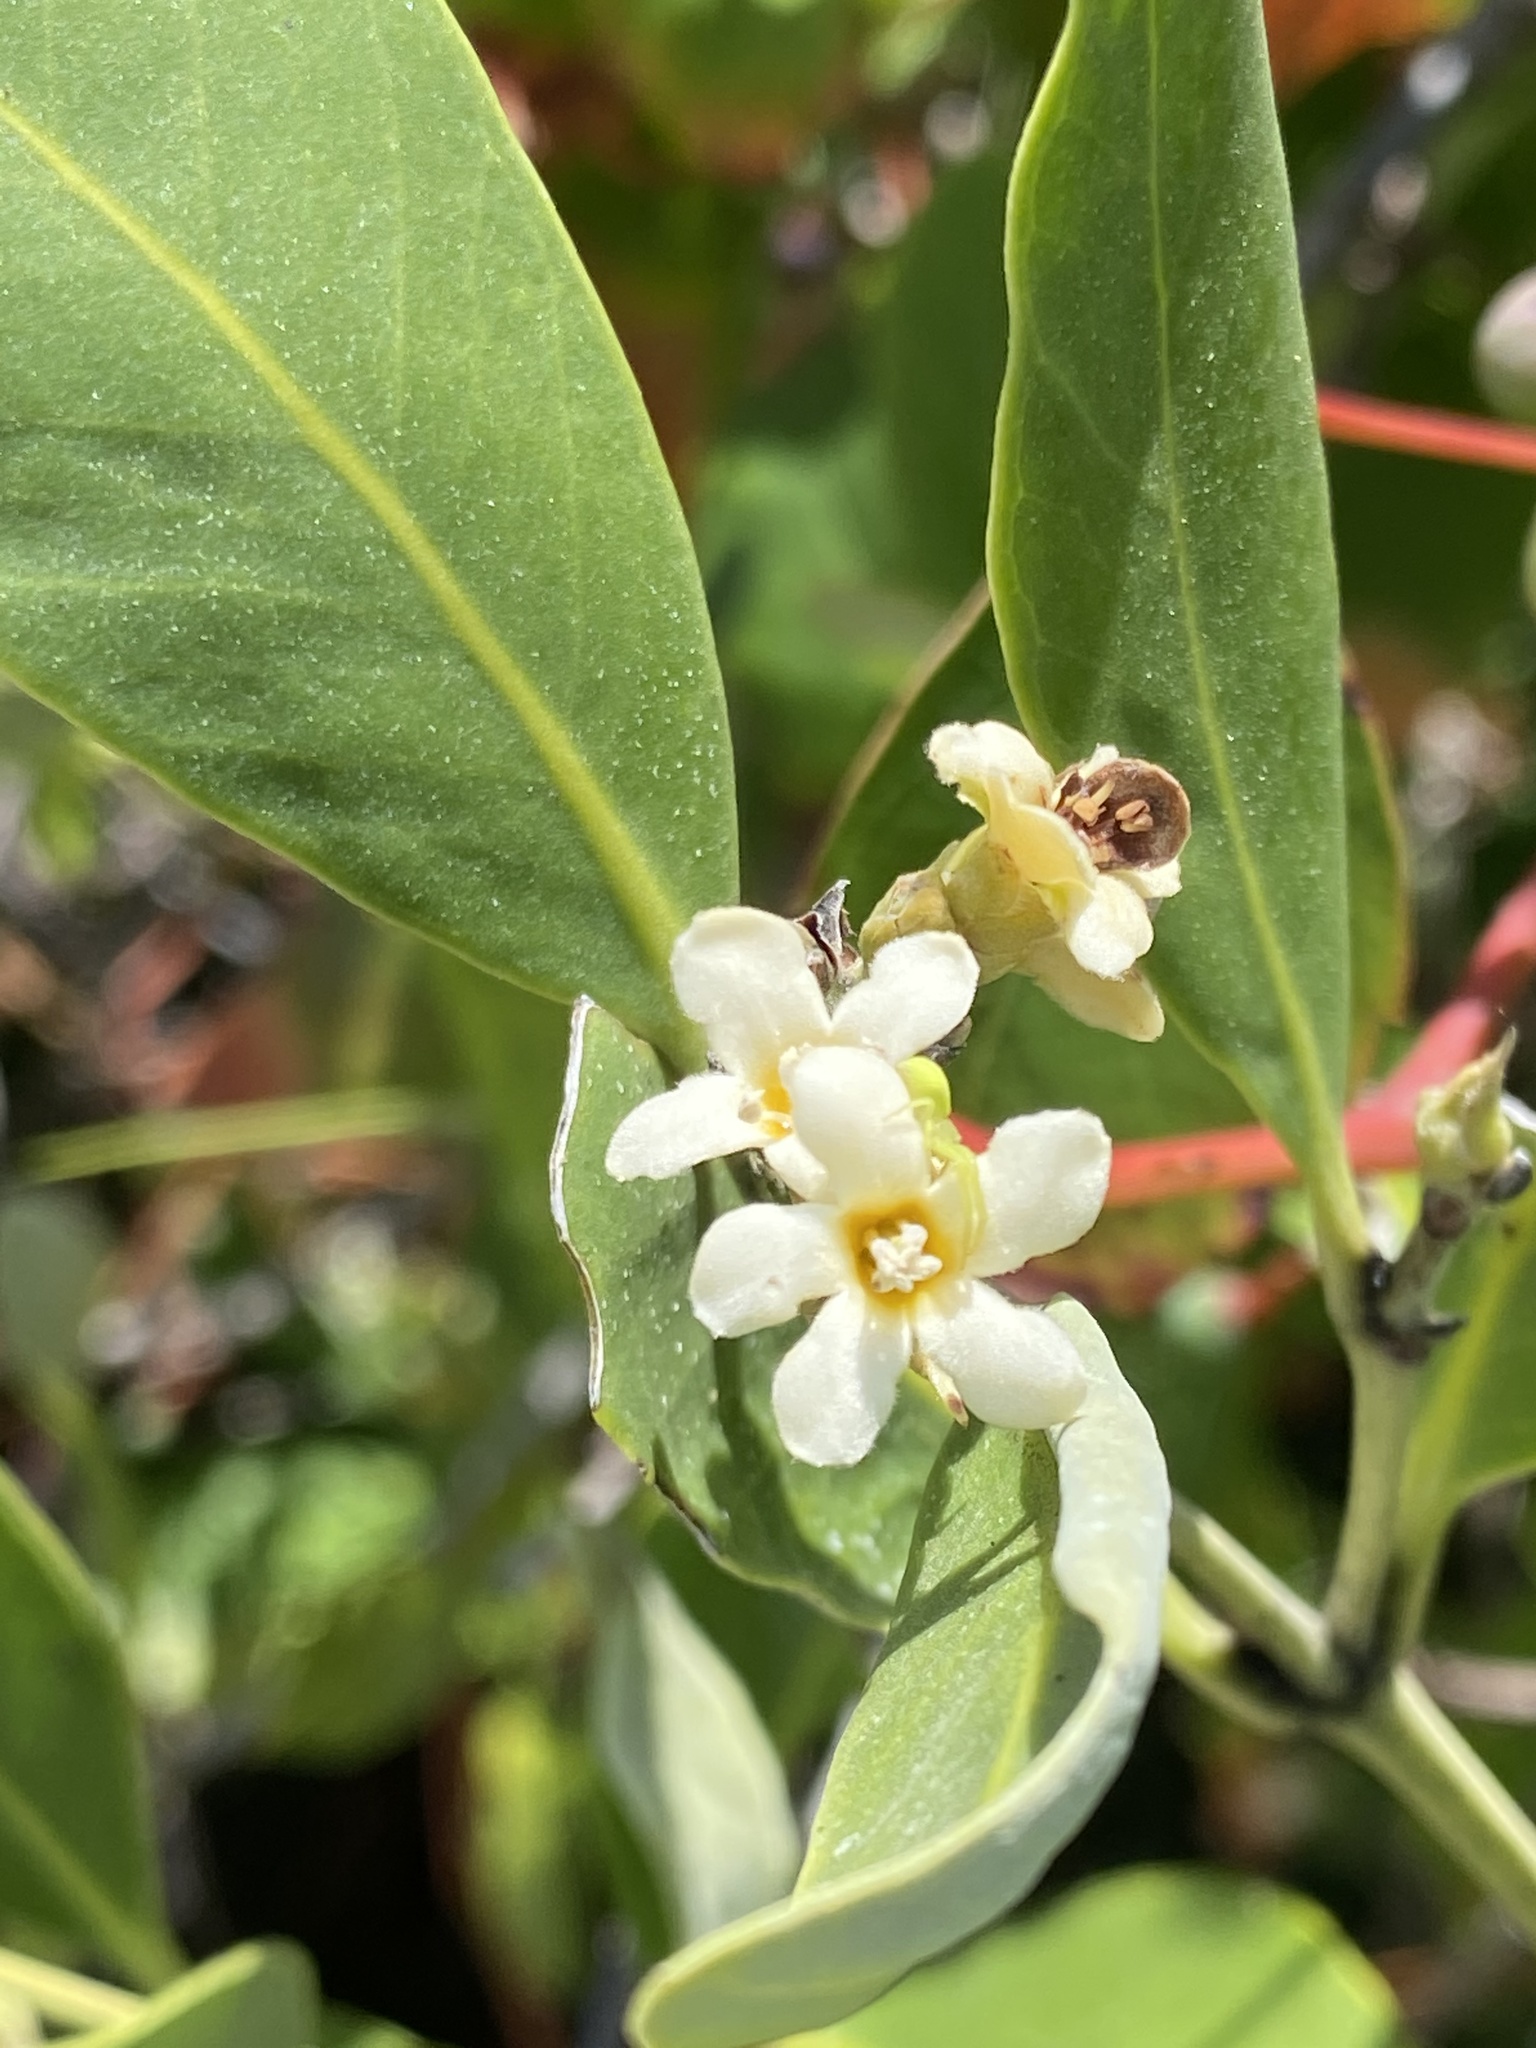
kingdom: Plantae
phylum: Tracheophyta
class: Magnoliopsida
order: Lamiales
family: Acanthaceae
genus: Avicennia
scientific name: Avicennia germinans
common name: Black mangrove
